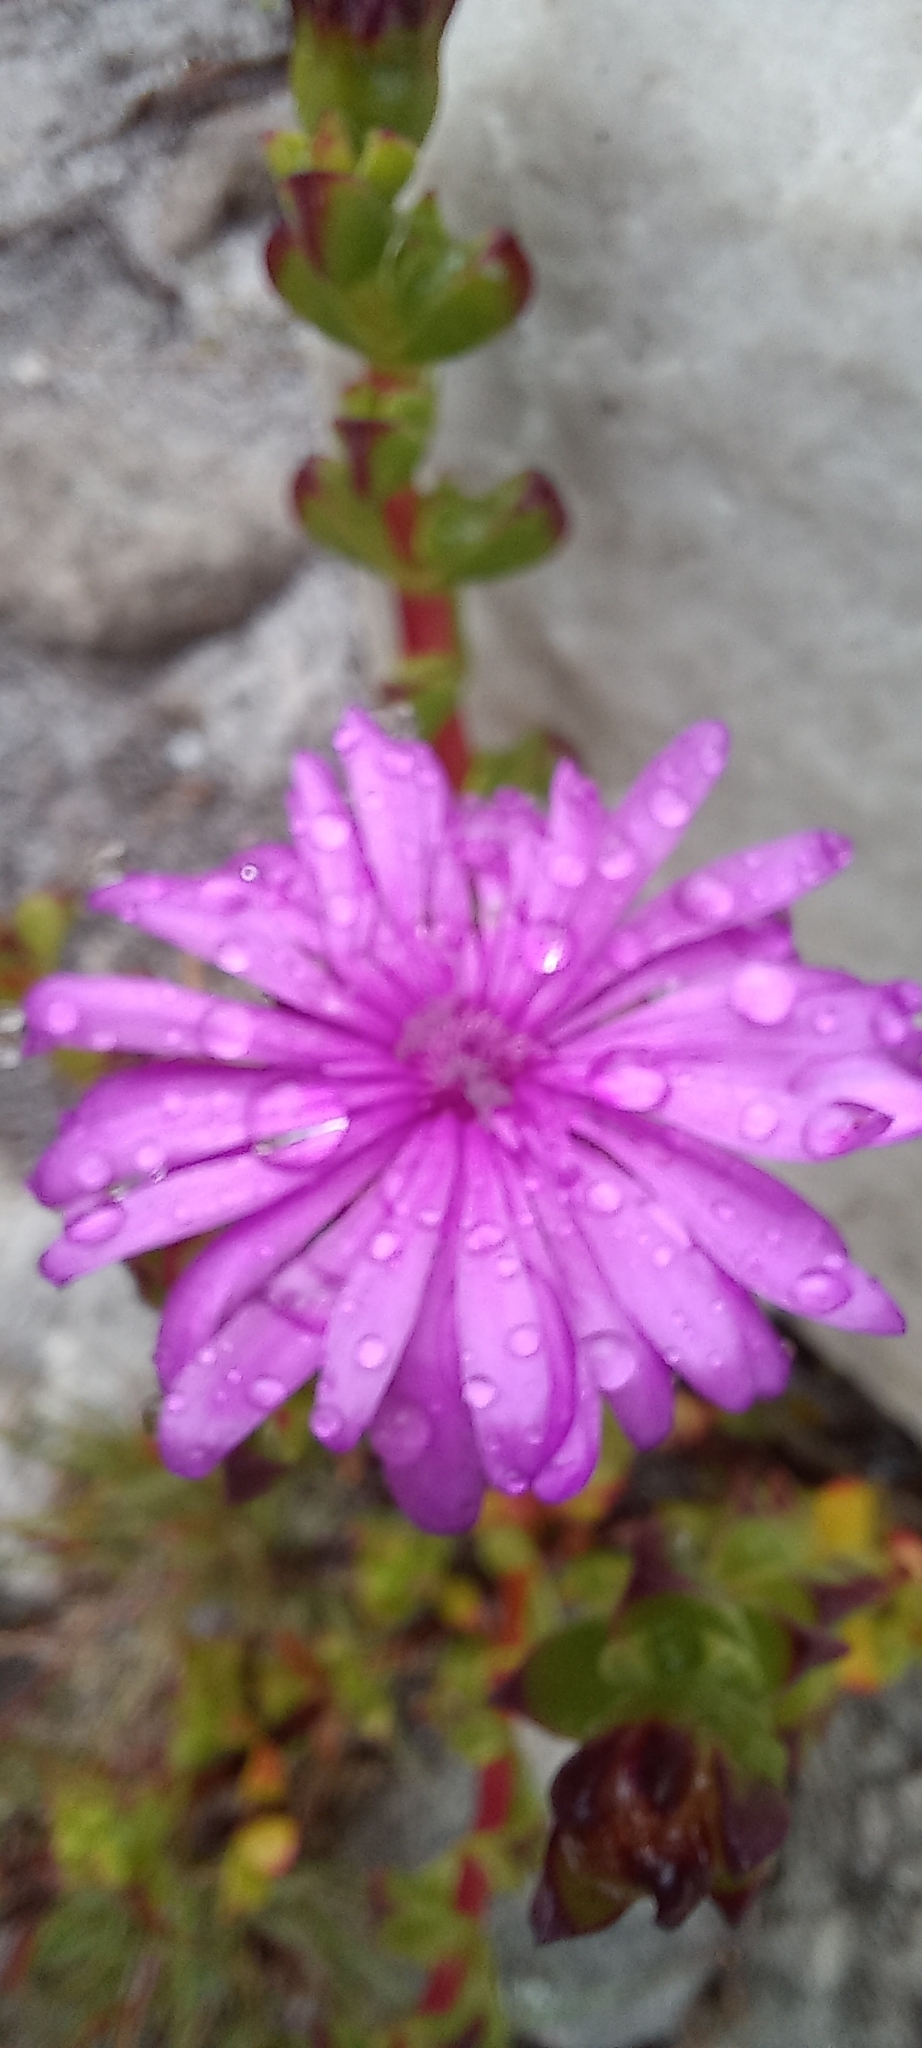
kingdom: Plantae
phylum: Tracheophyta
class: Magnoliopsida
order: Caryophyllales
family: Aizoaceae
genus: Erepsia
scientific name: Erepsia inclaudens
